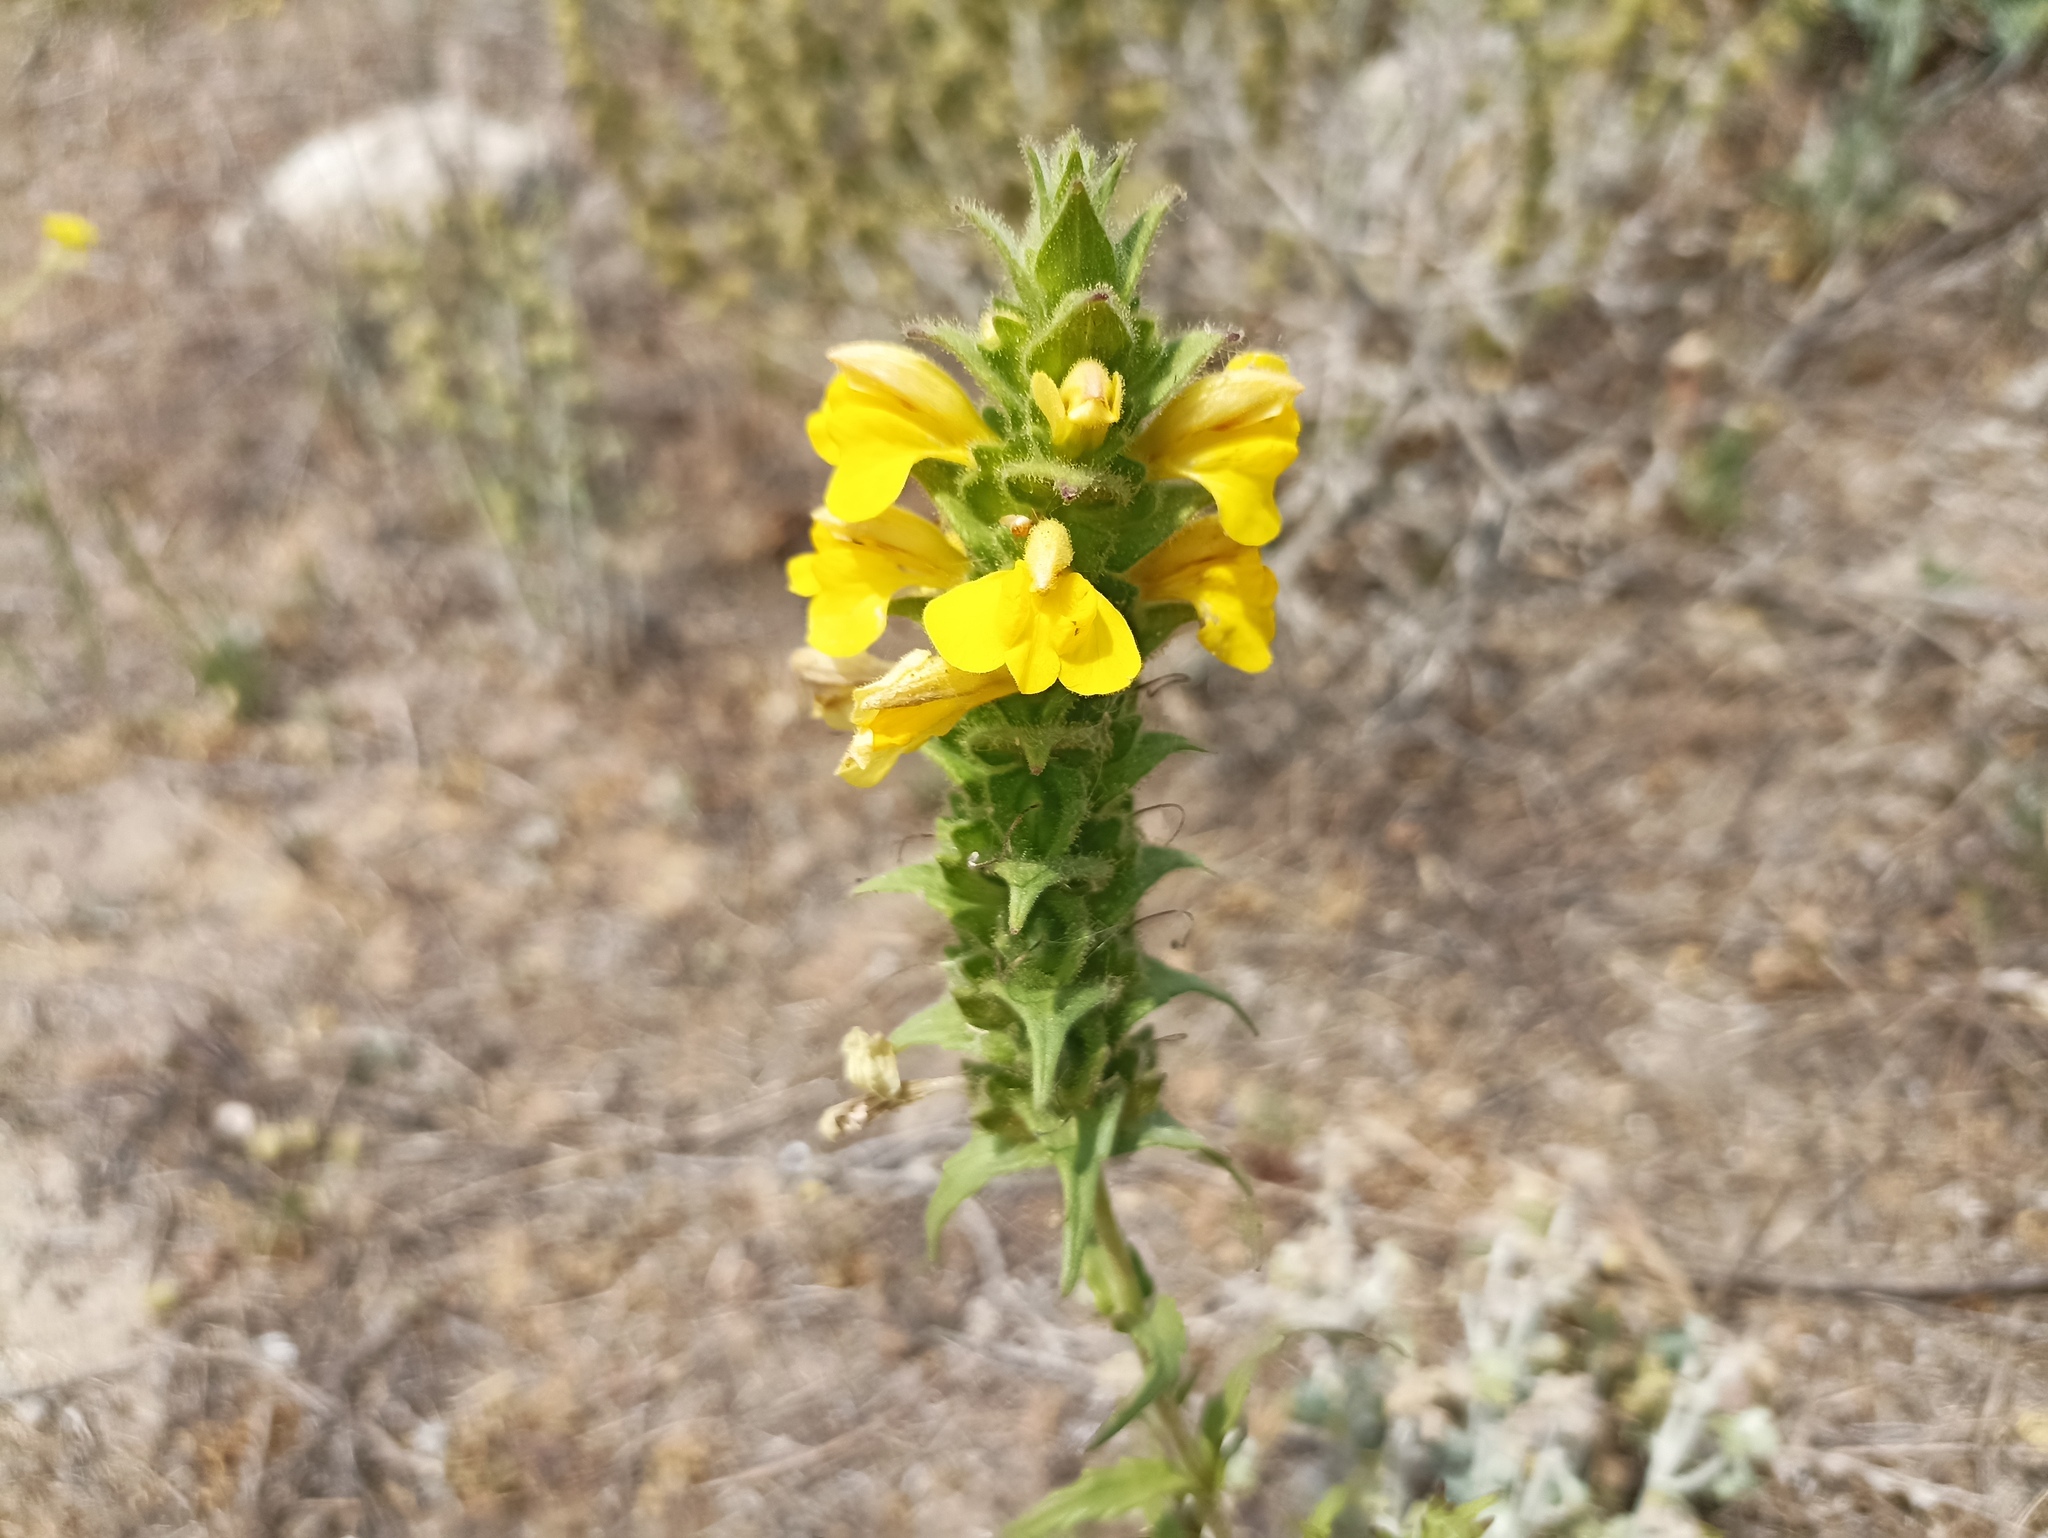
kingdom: Plantae
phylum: Tracheophyta
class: Magnoliopsida
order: Lamiales
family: Orobanchaceae
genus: Bellardia
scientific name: Bellardia trixago
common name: Mediterranean lineseed
